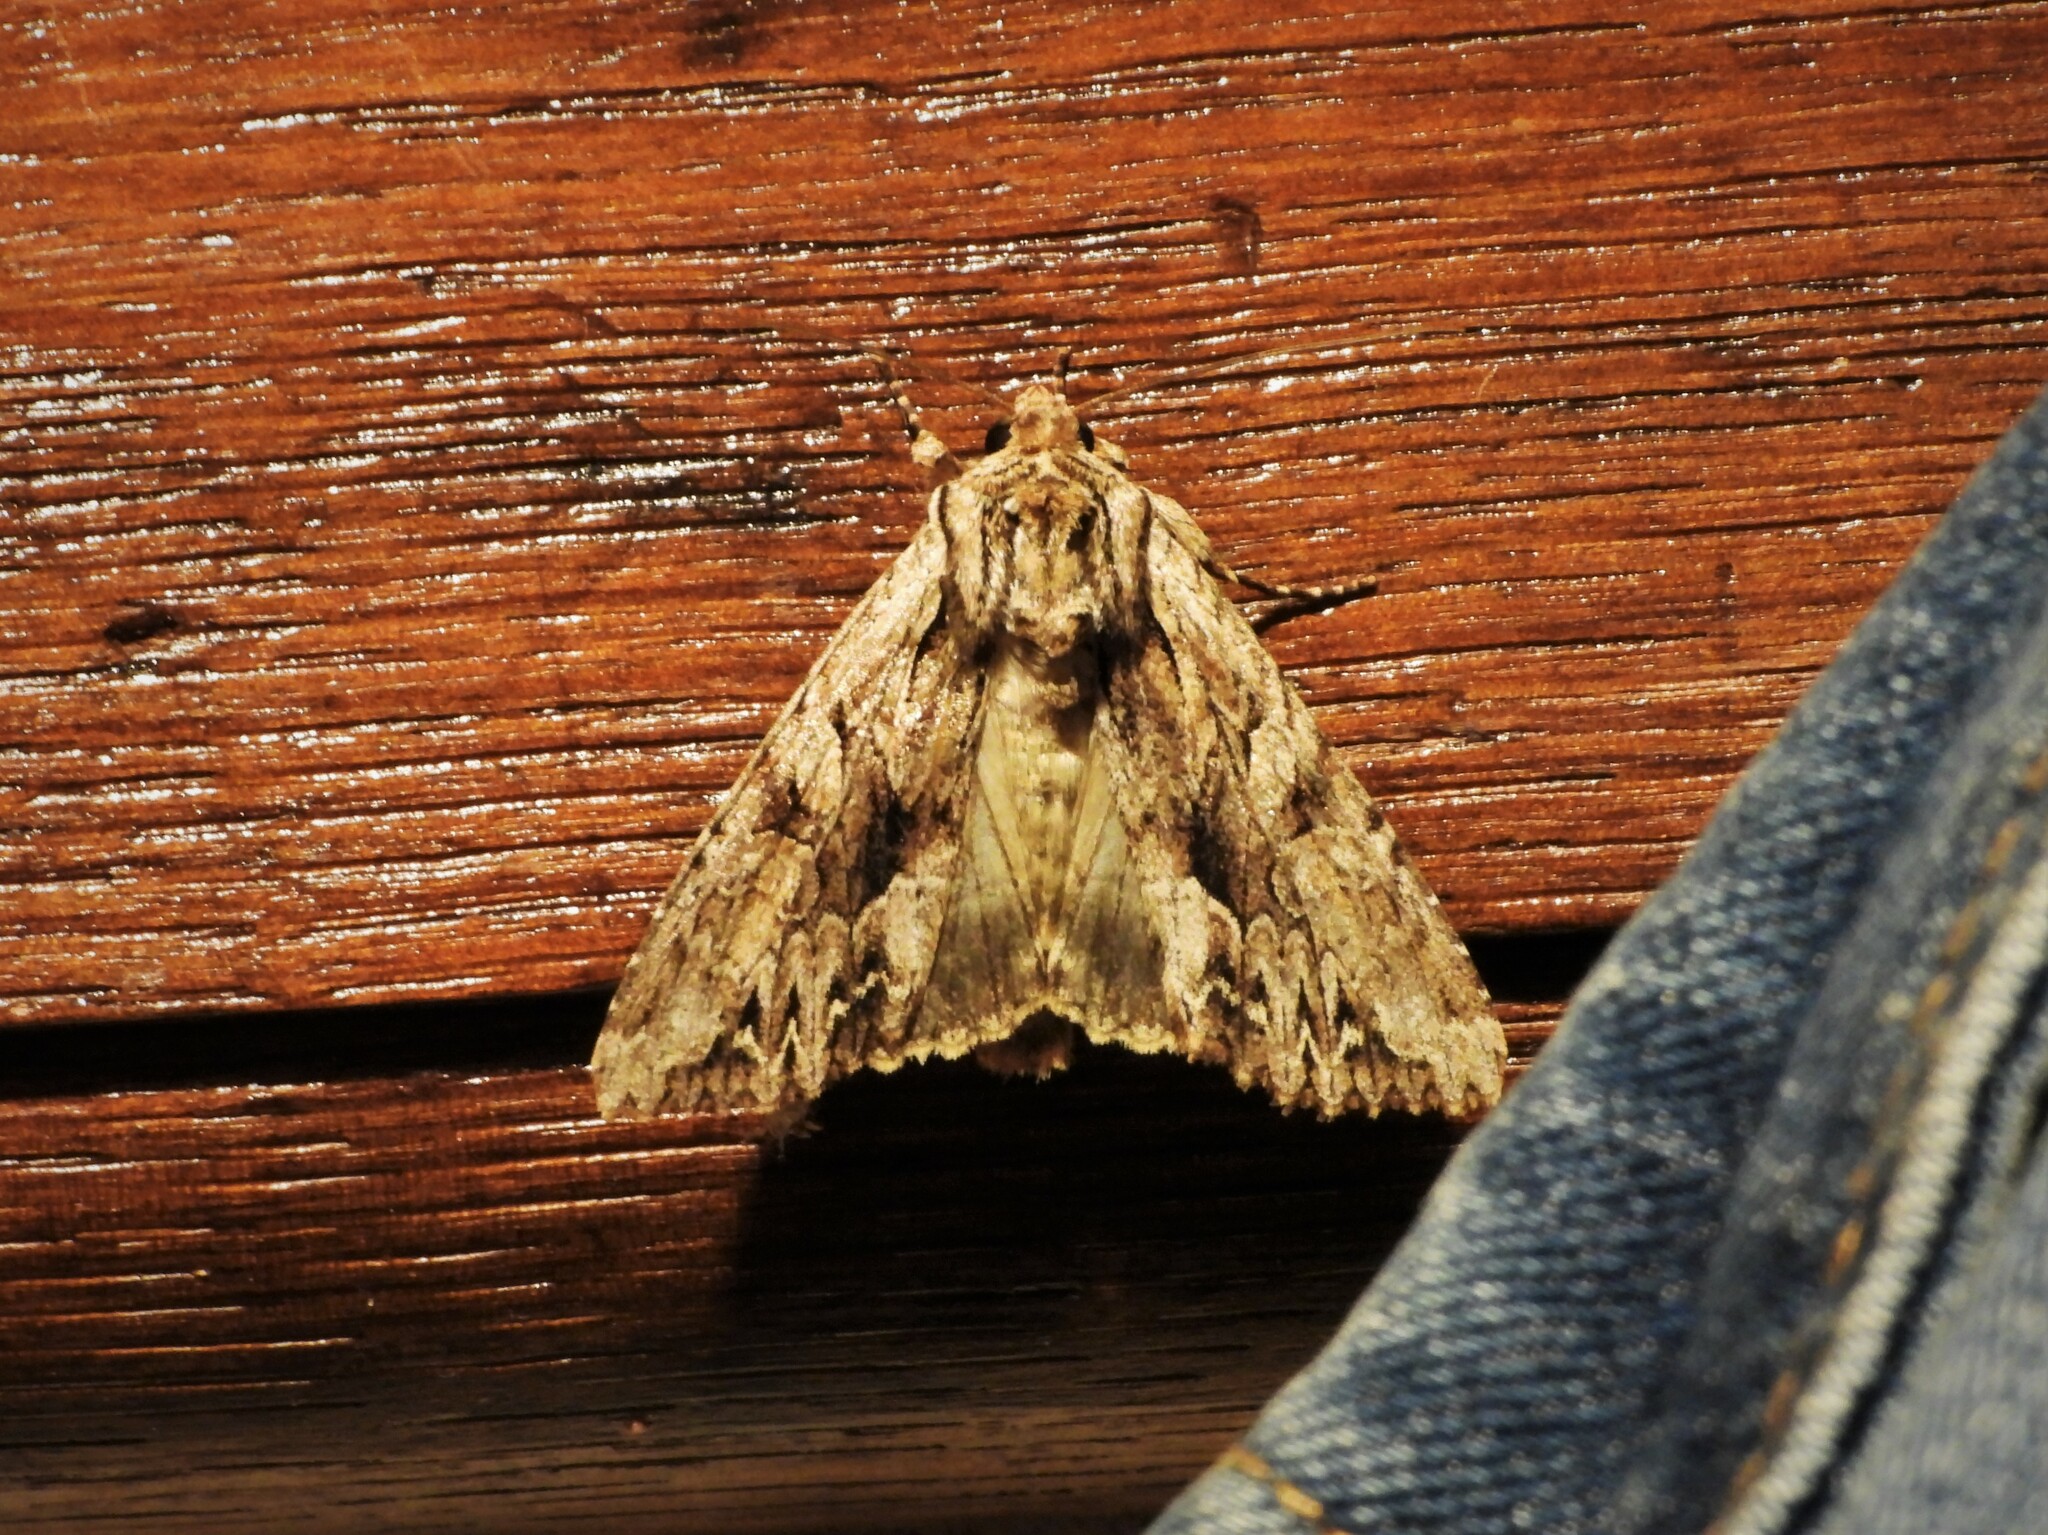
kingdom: Animalia
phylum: Arthropoda
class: Insecta
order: Lepidoptera
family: Noctuidae
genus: Apamea
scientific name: Apamea monoglypha
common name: Dark arches
